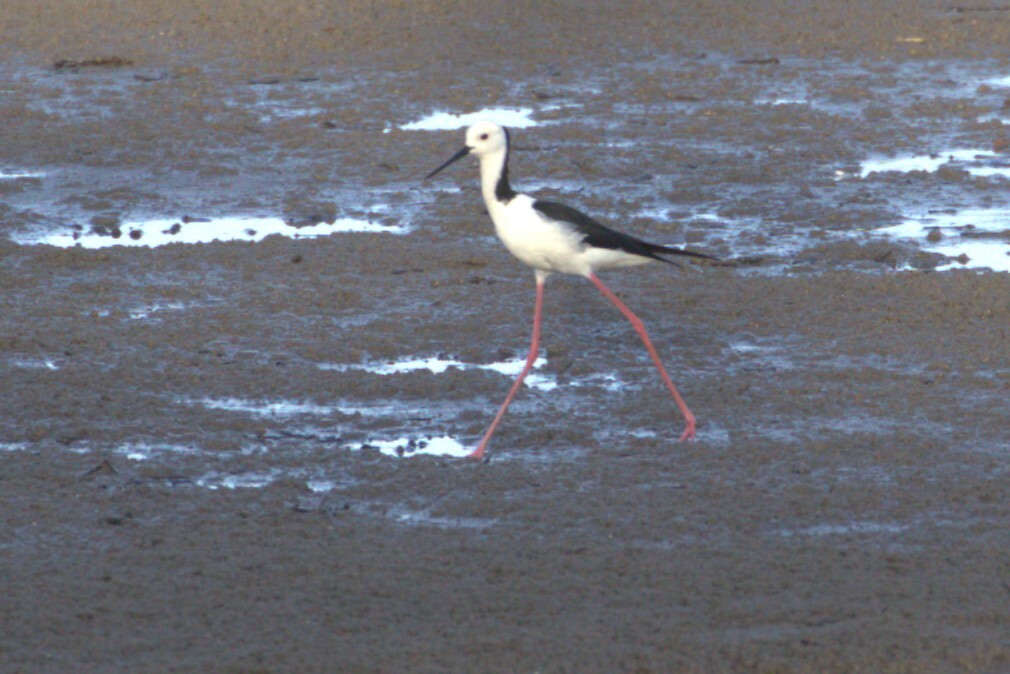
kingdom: Animalia
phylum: Chordata
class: Aves
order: Charadriiformes
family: Recurvirostridae
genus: Himantopus
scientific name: Himantopus leucocephalus
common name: White-headed stilt
